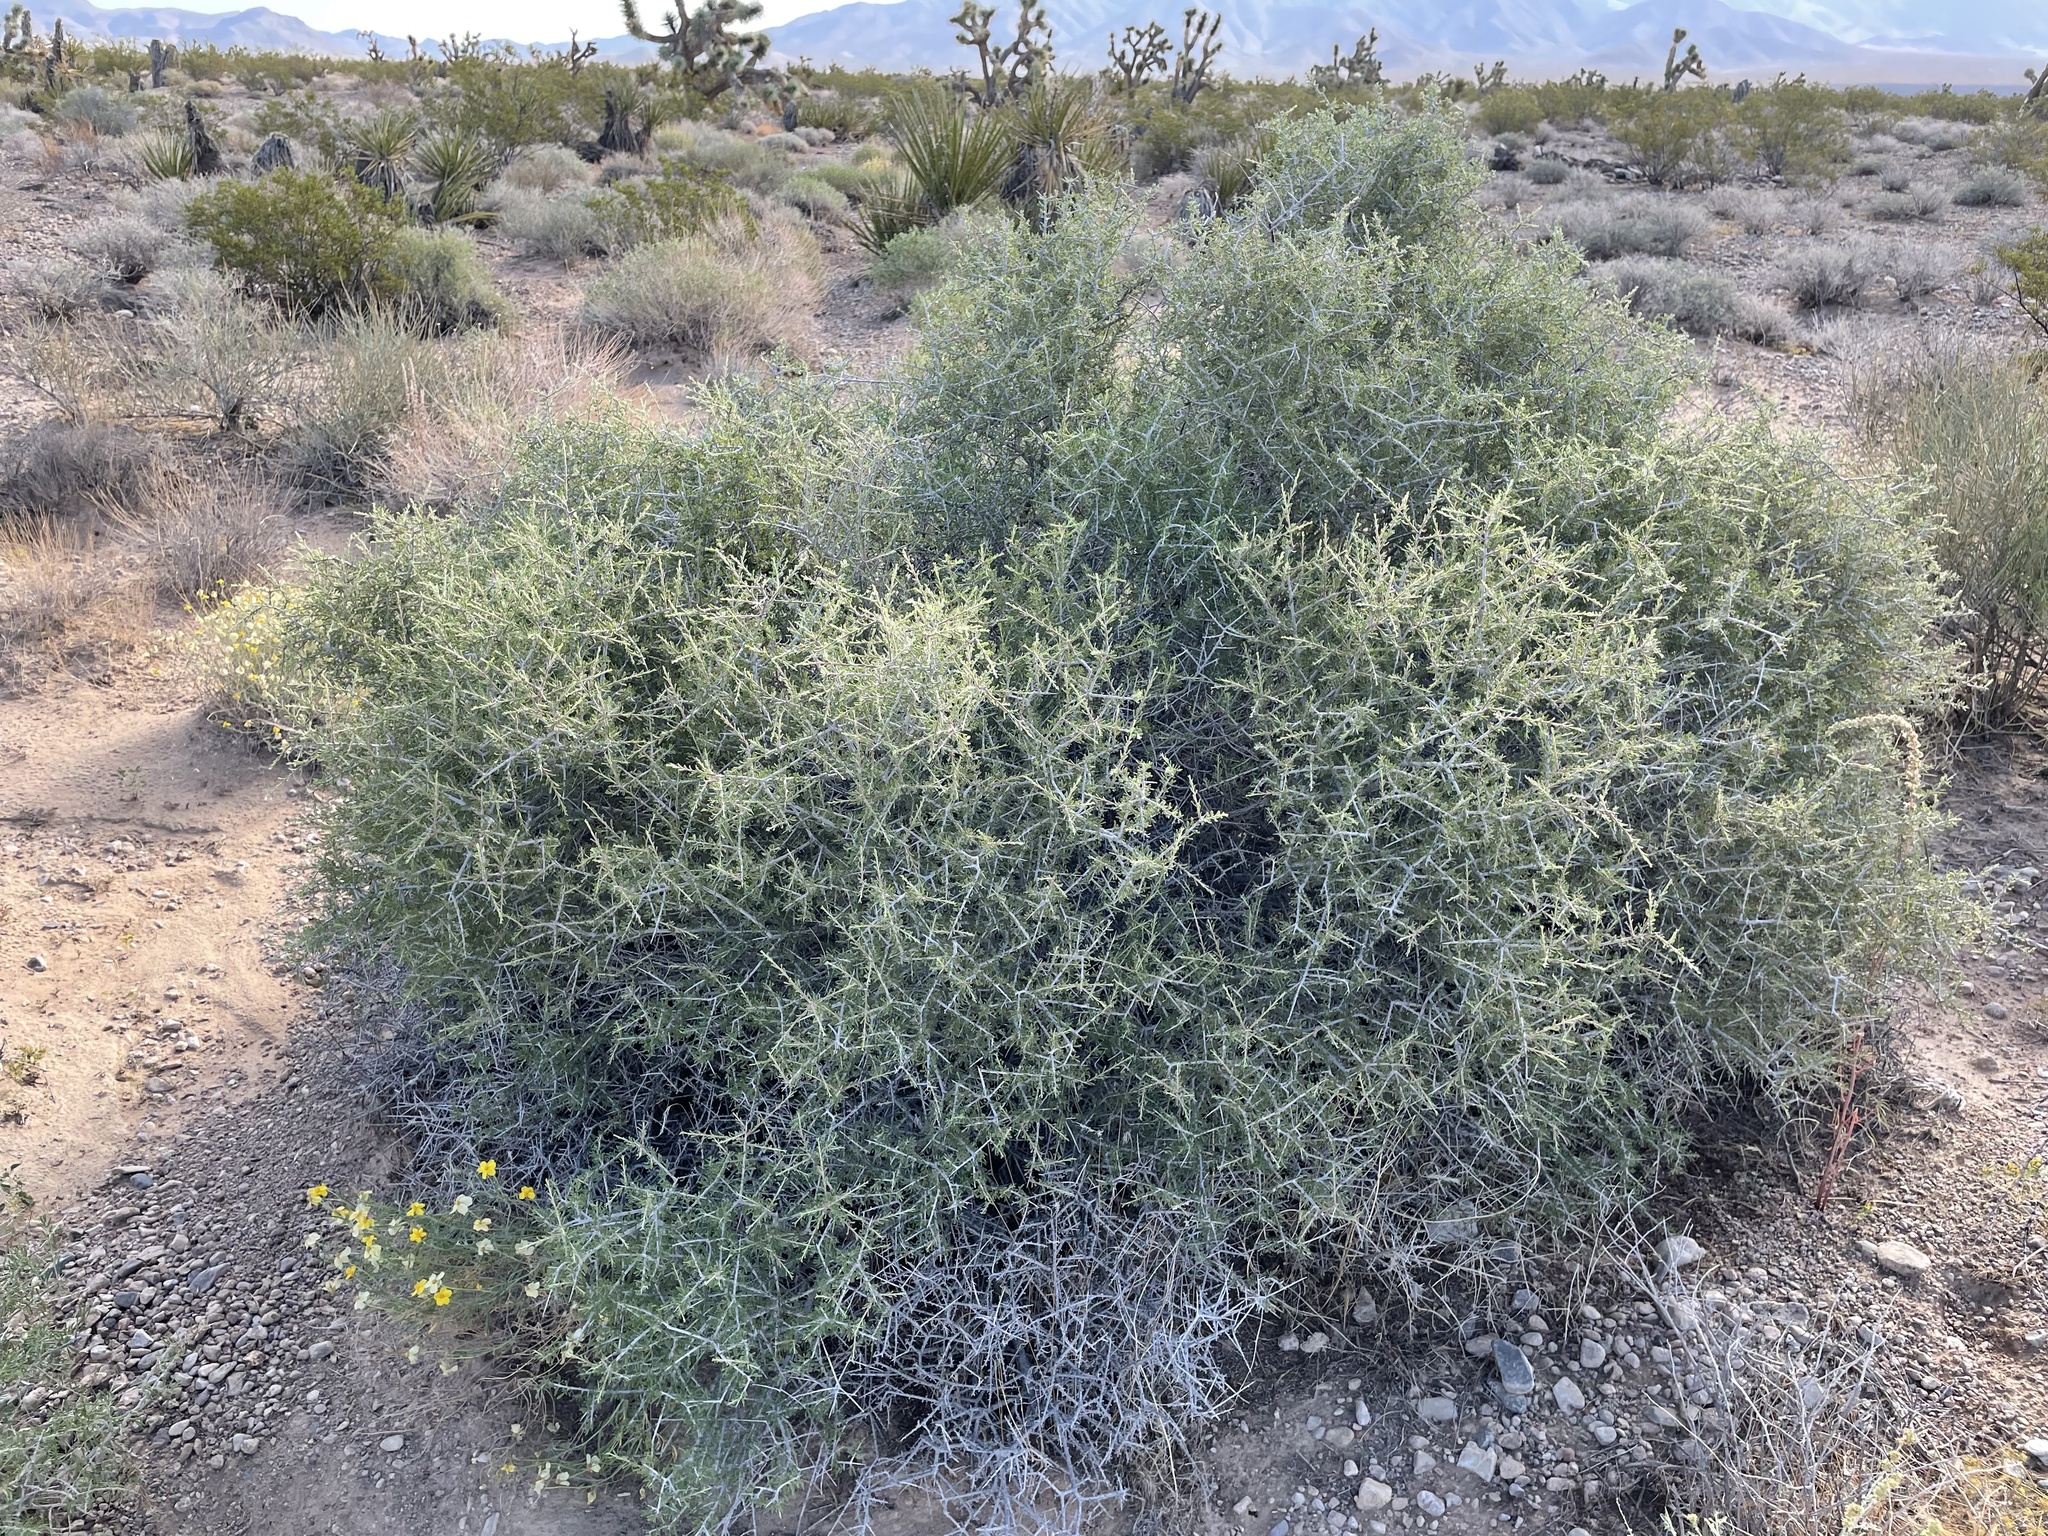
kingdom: Plantae
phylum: Tracheophyta
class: Magnoliopsida
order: Rosales
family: Rosaceae
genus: Prunus
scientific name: Prunus fasciculata
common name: Desert almond
